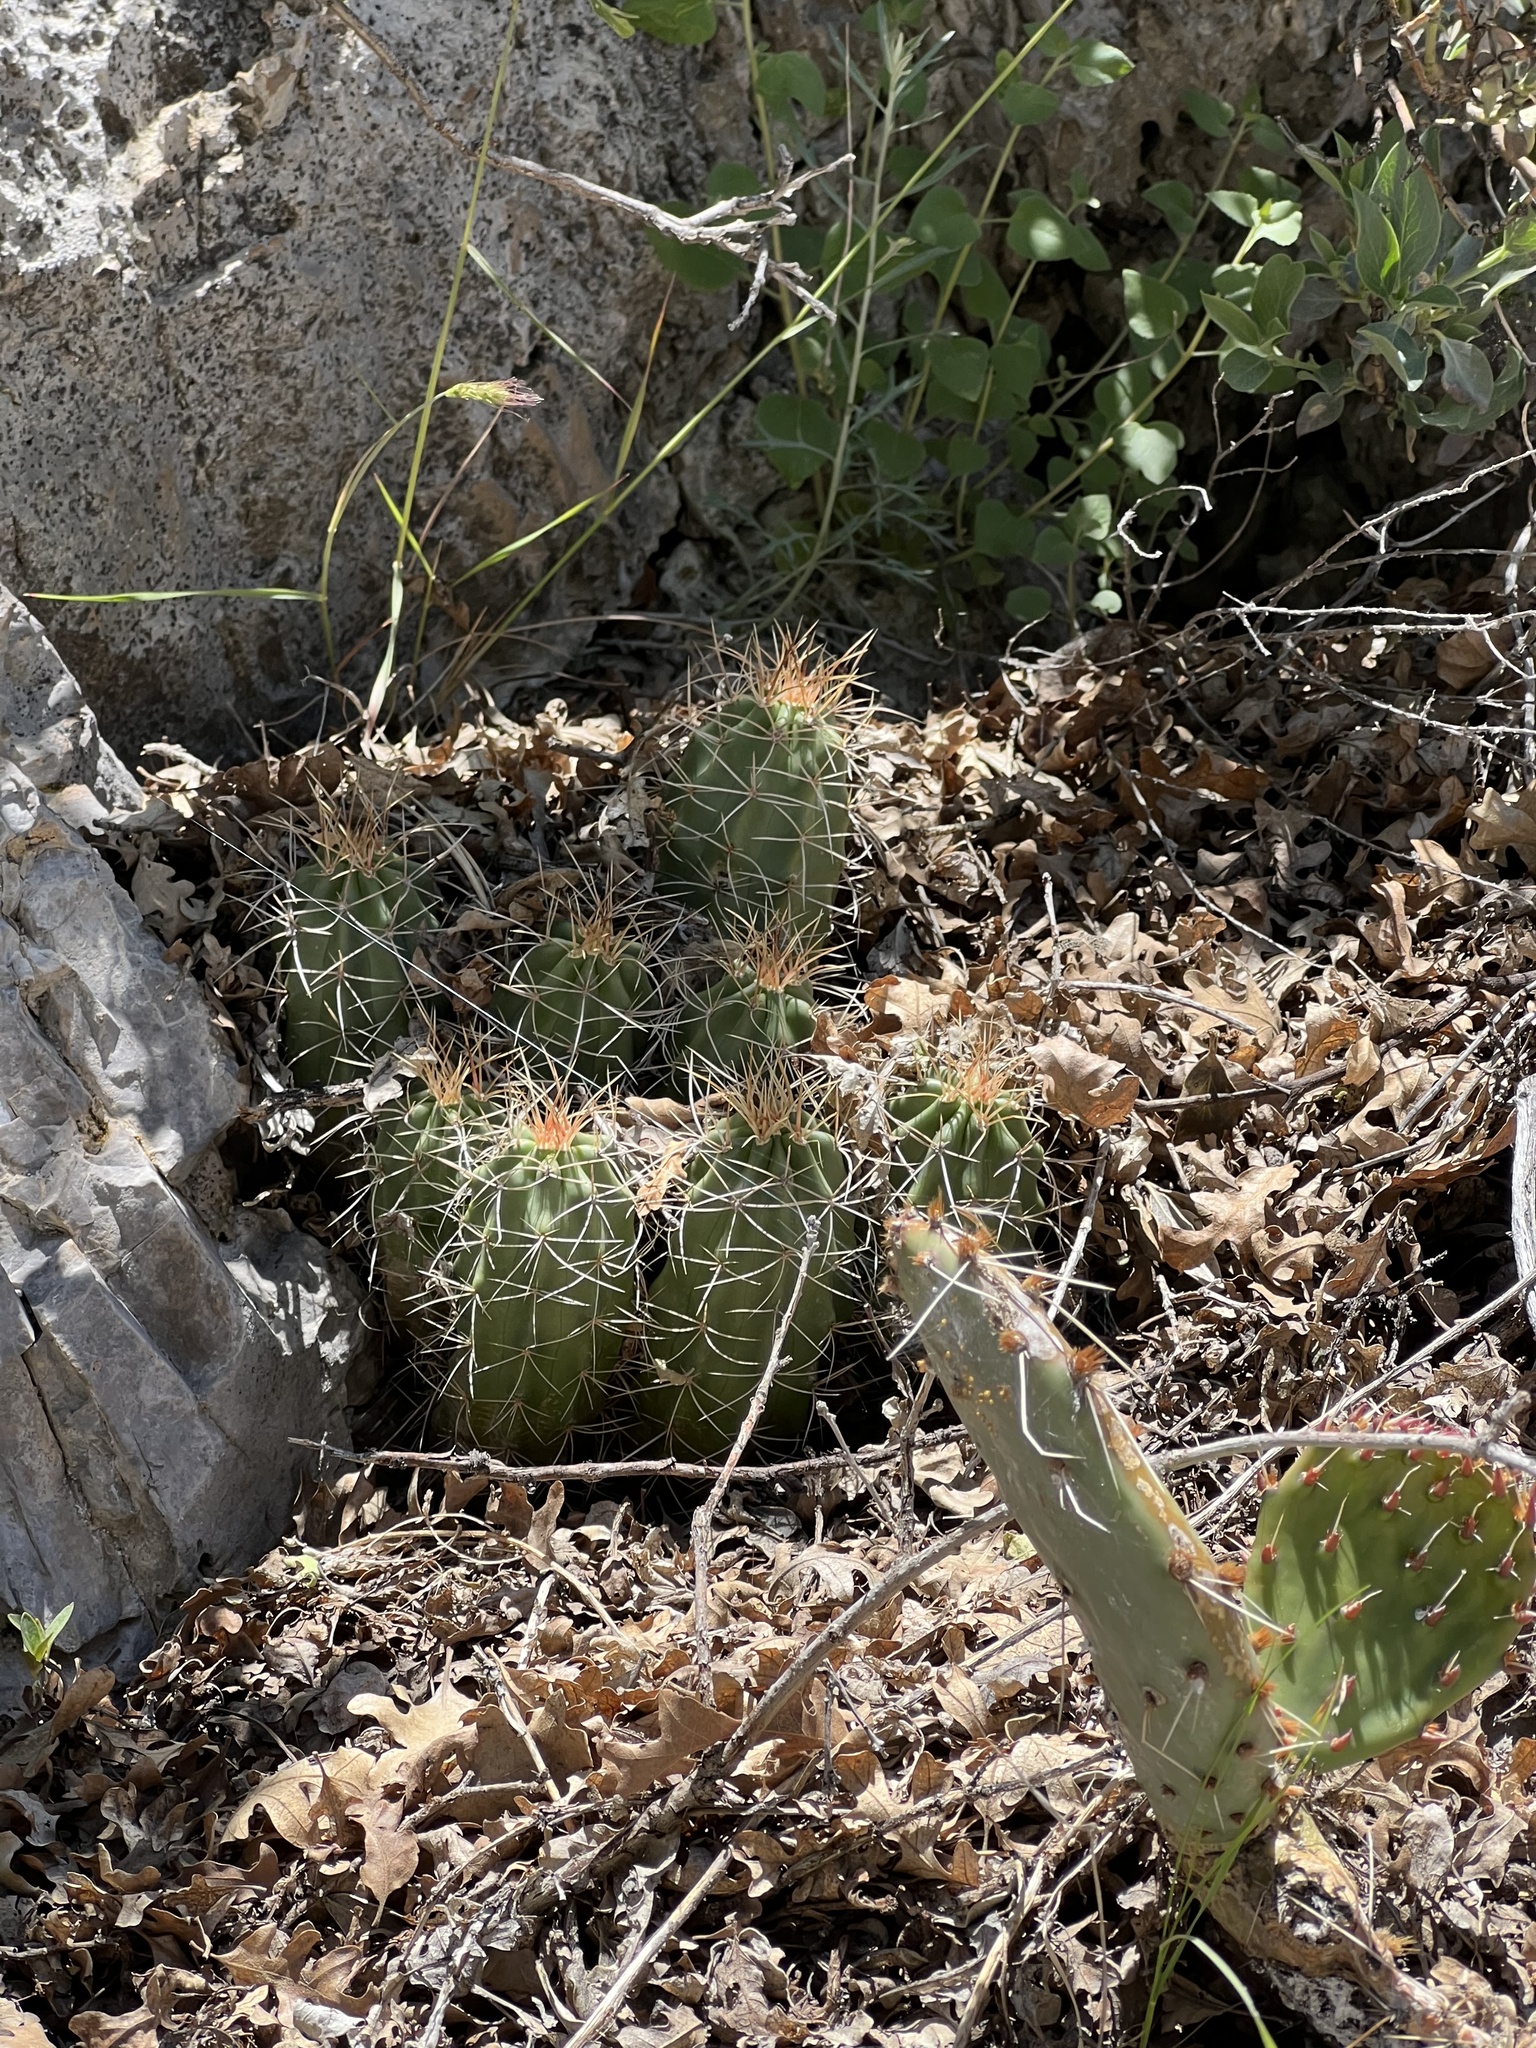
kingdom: Plantae
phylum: Tracheophyta
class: Magnoliopsida
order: Caryophyllales
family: Cactaceae
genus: Echinocereus
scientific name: Echinocereus triglochidiatus
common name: Claretcup hedgehog
